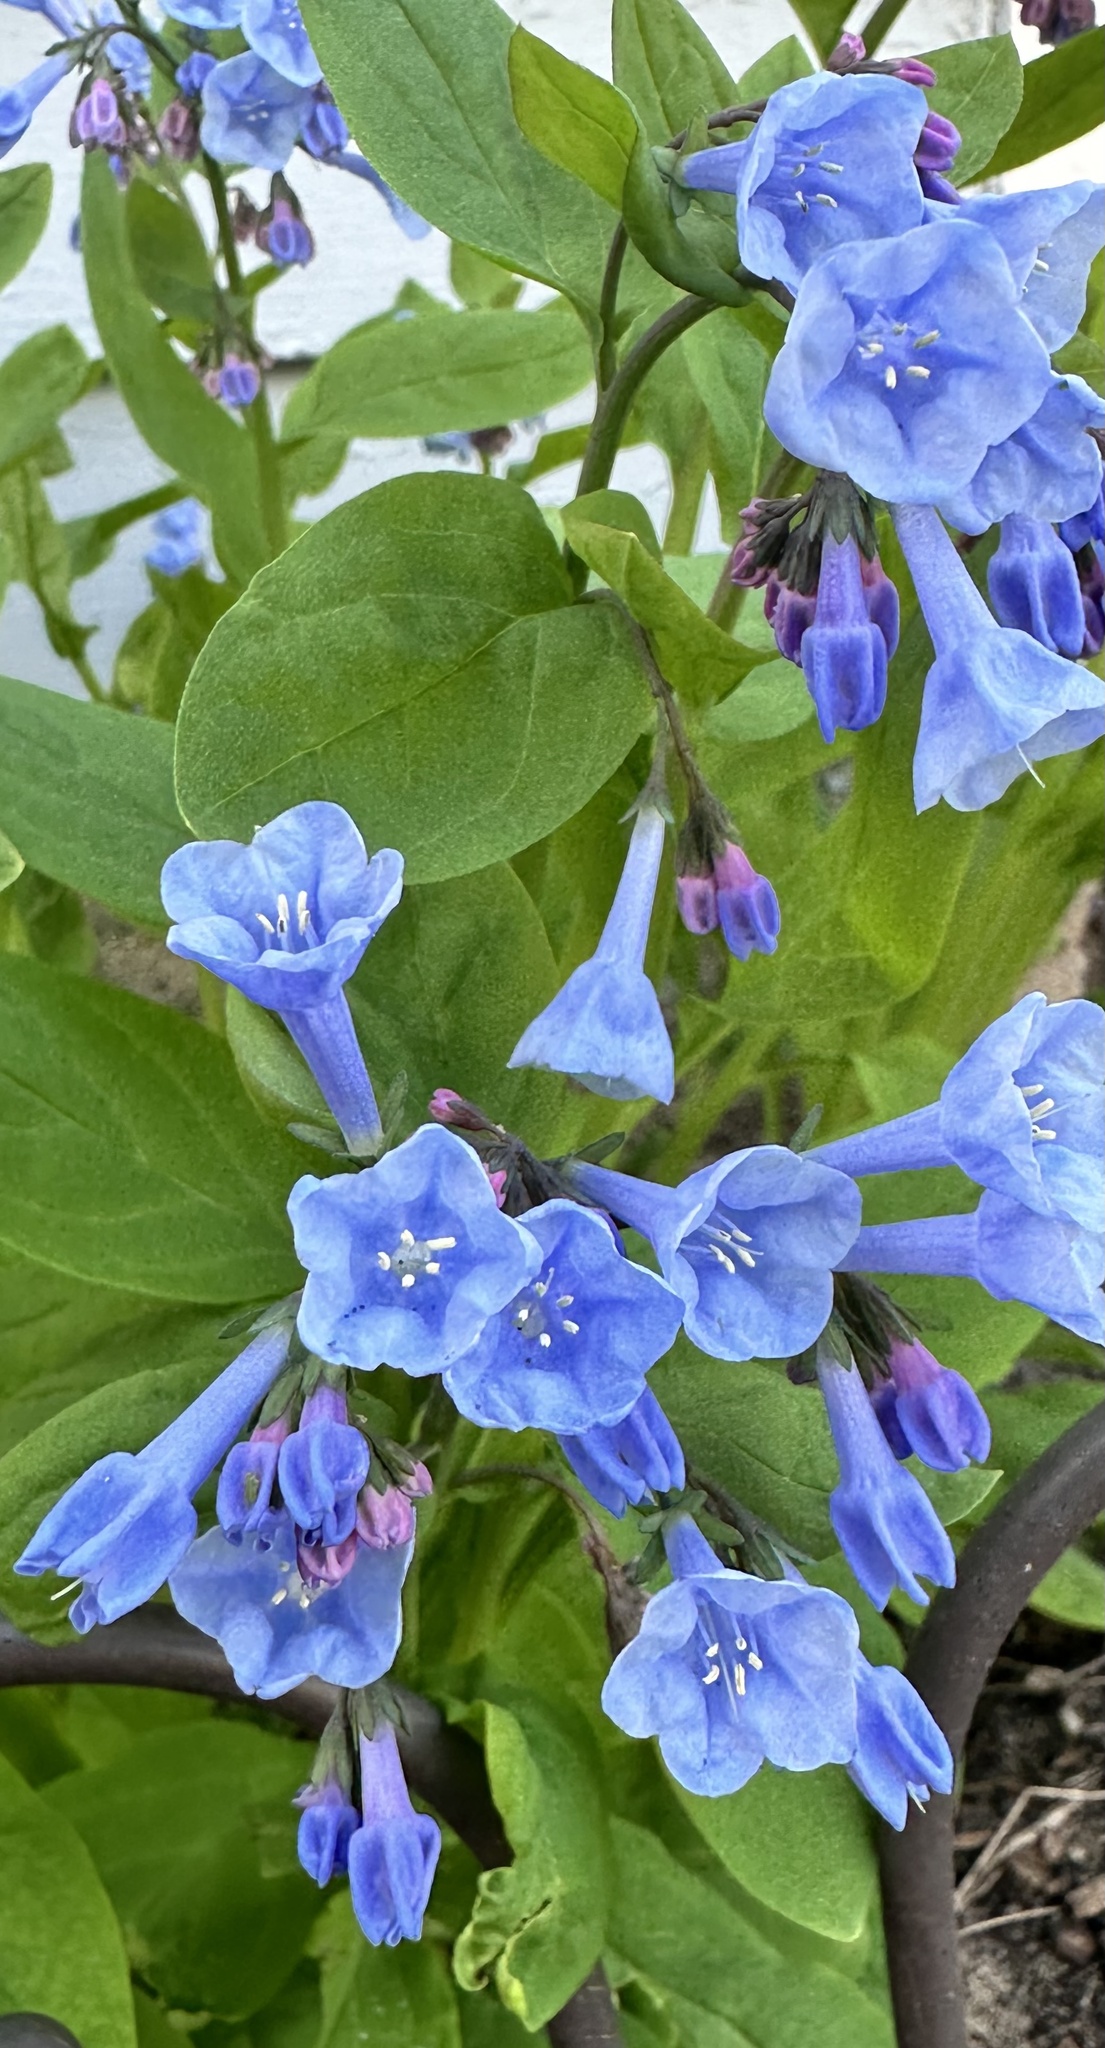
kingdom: Plantae
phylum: Tracheophyta
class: Magnoliopsida
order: Boraginales
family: Boraginaceae
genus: Mertensia
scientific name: Mertensia virginica
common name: Virginia bluebells
